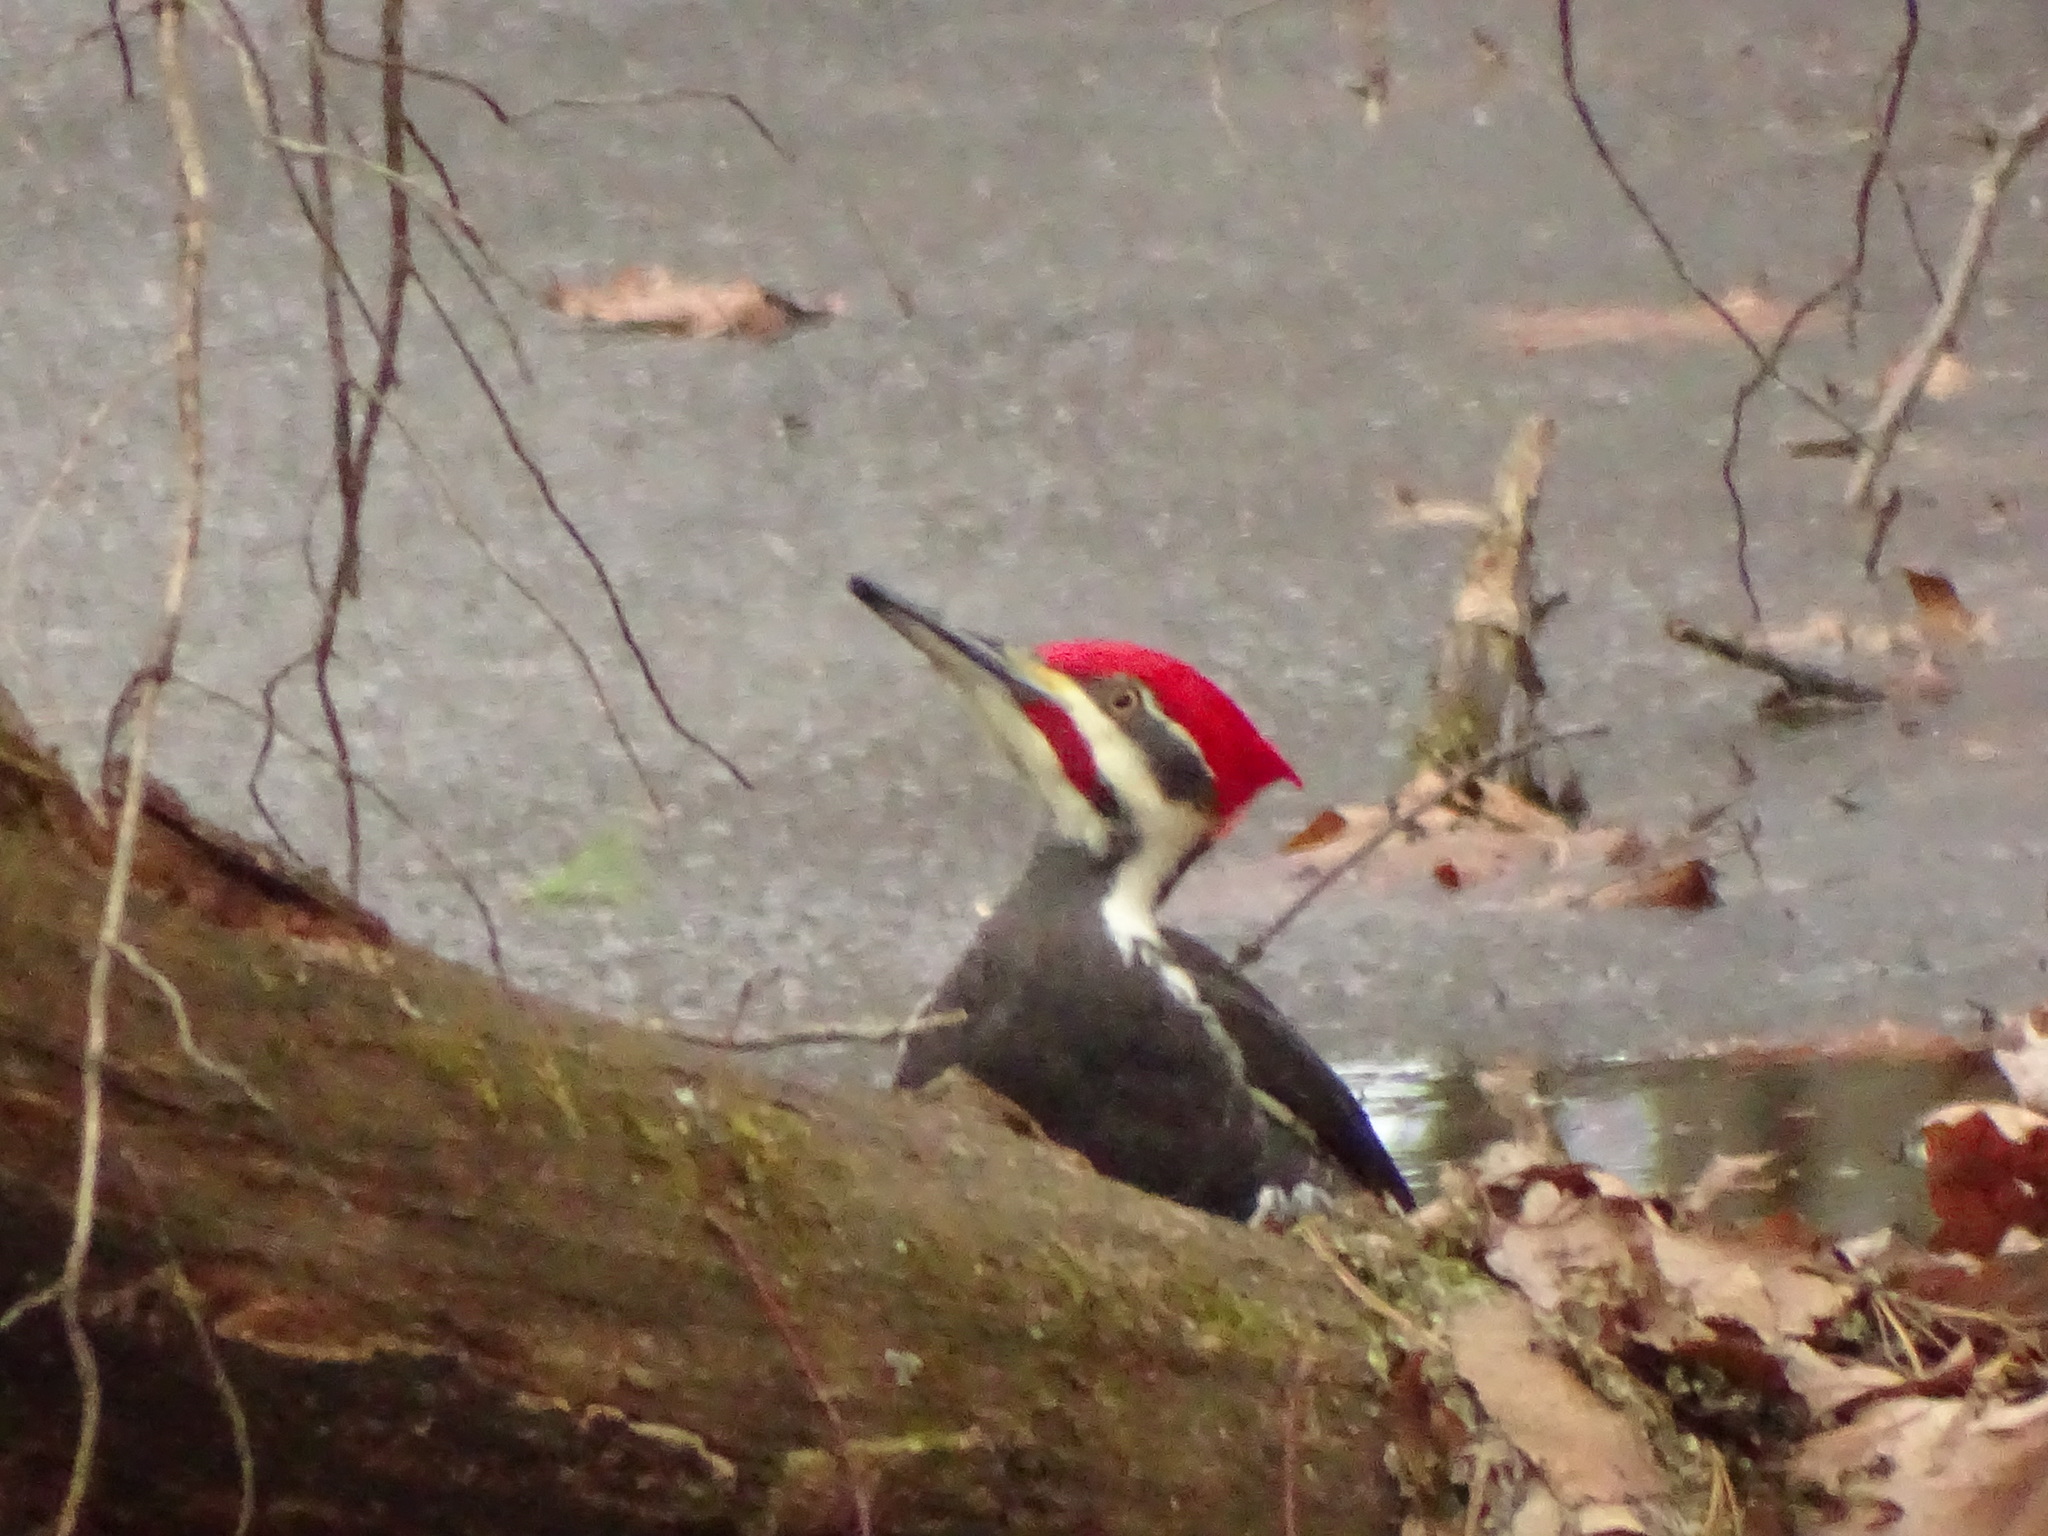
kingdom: Animalia
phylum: Chordata
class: Aves
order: Piciformes
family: Picidae
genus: Dryocopus
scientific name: Dryocopus pileatus
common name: Pileated woodpecker
